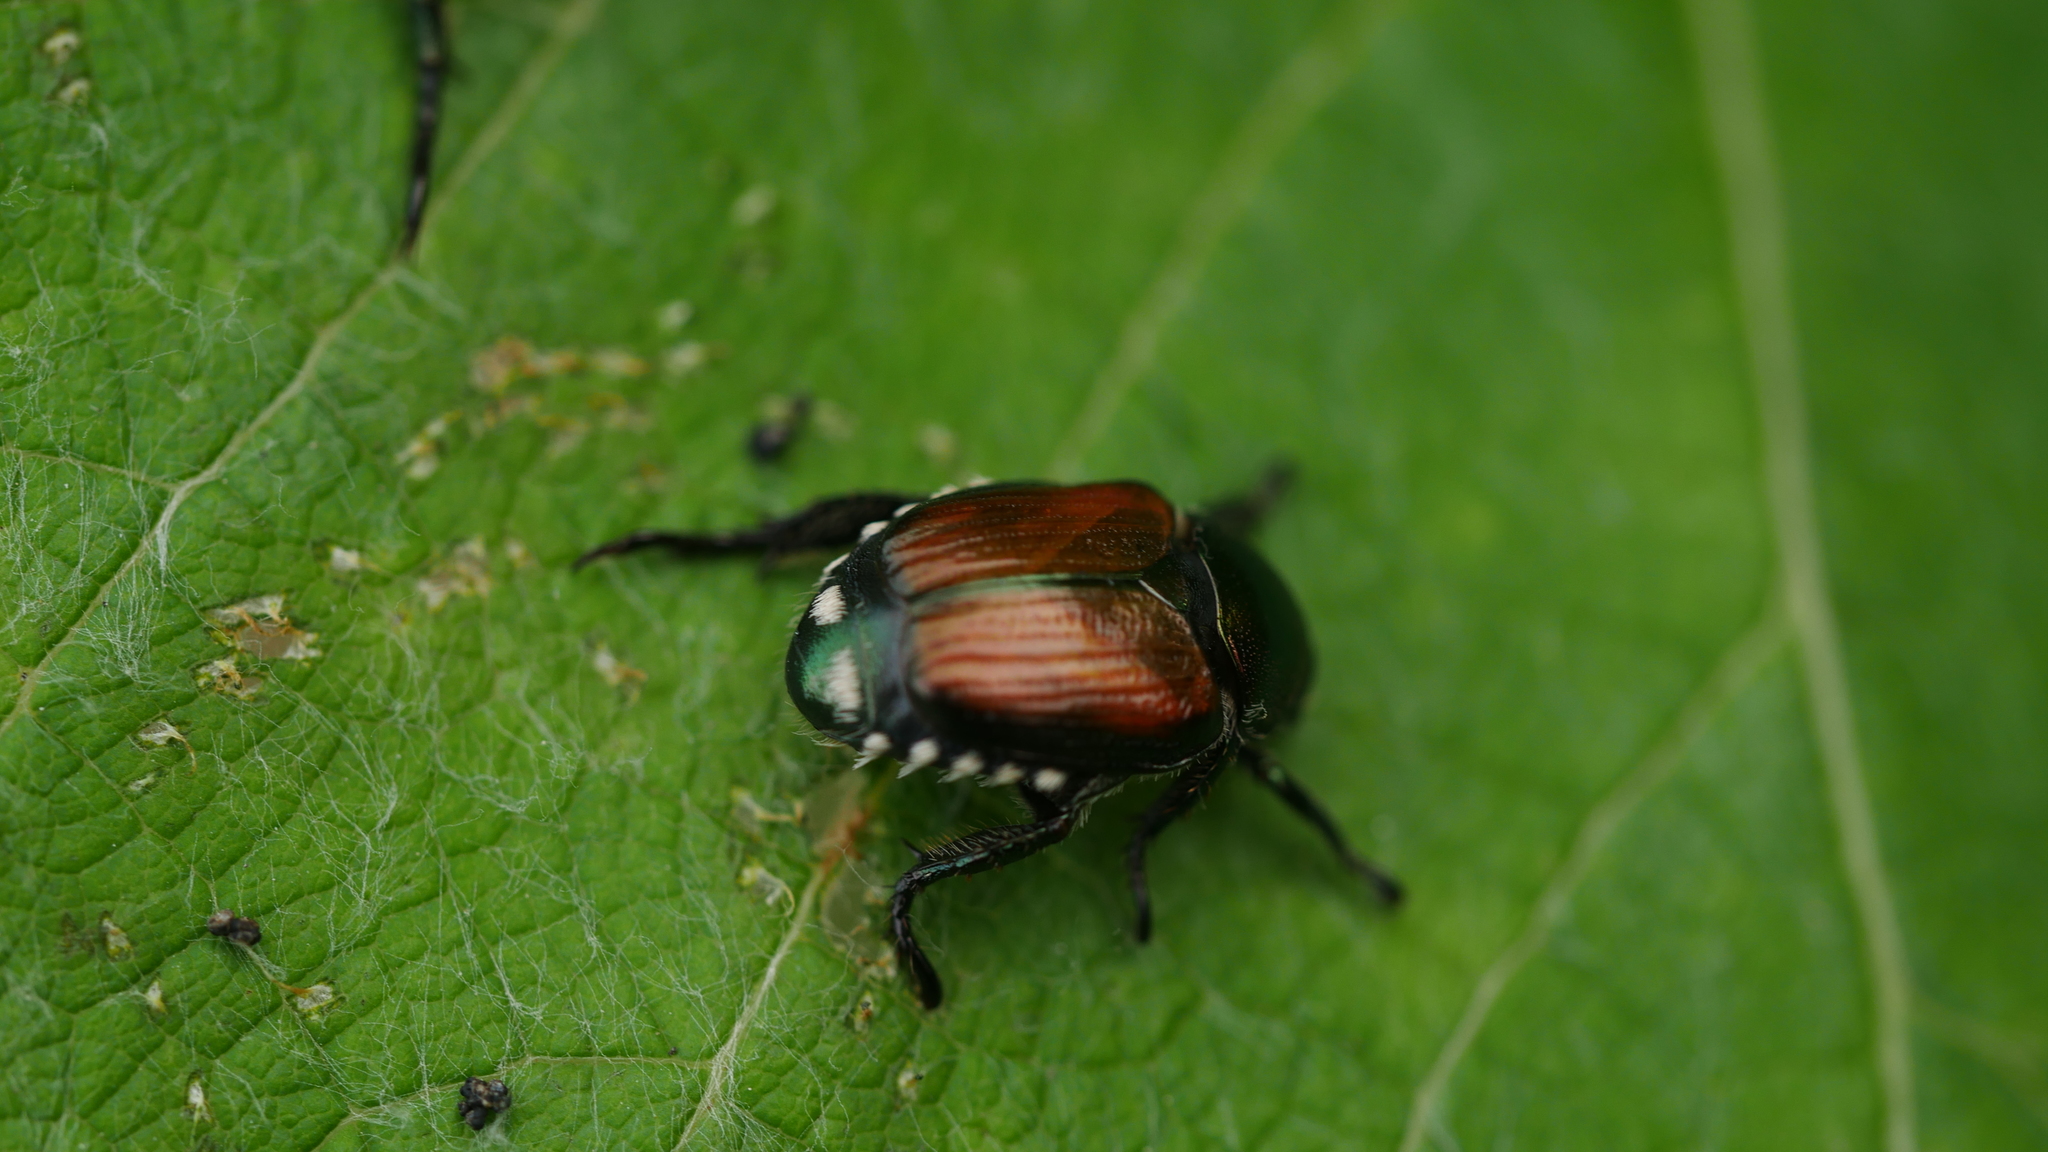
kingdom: Animalia
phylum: Arthropoda
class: Insecta
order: Coleoptera
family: Scarabaeidae
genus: Popillia
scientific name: Popillia japonica
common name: Japanese beetle
